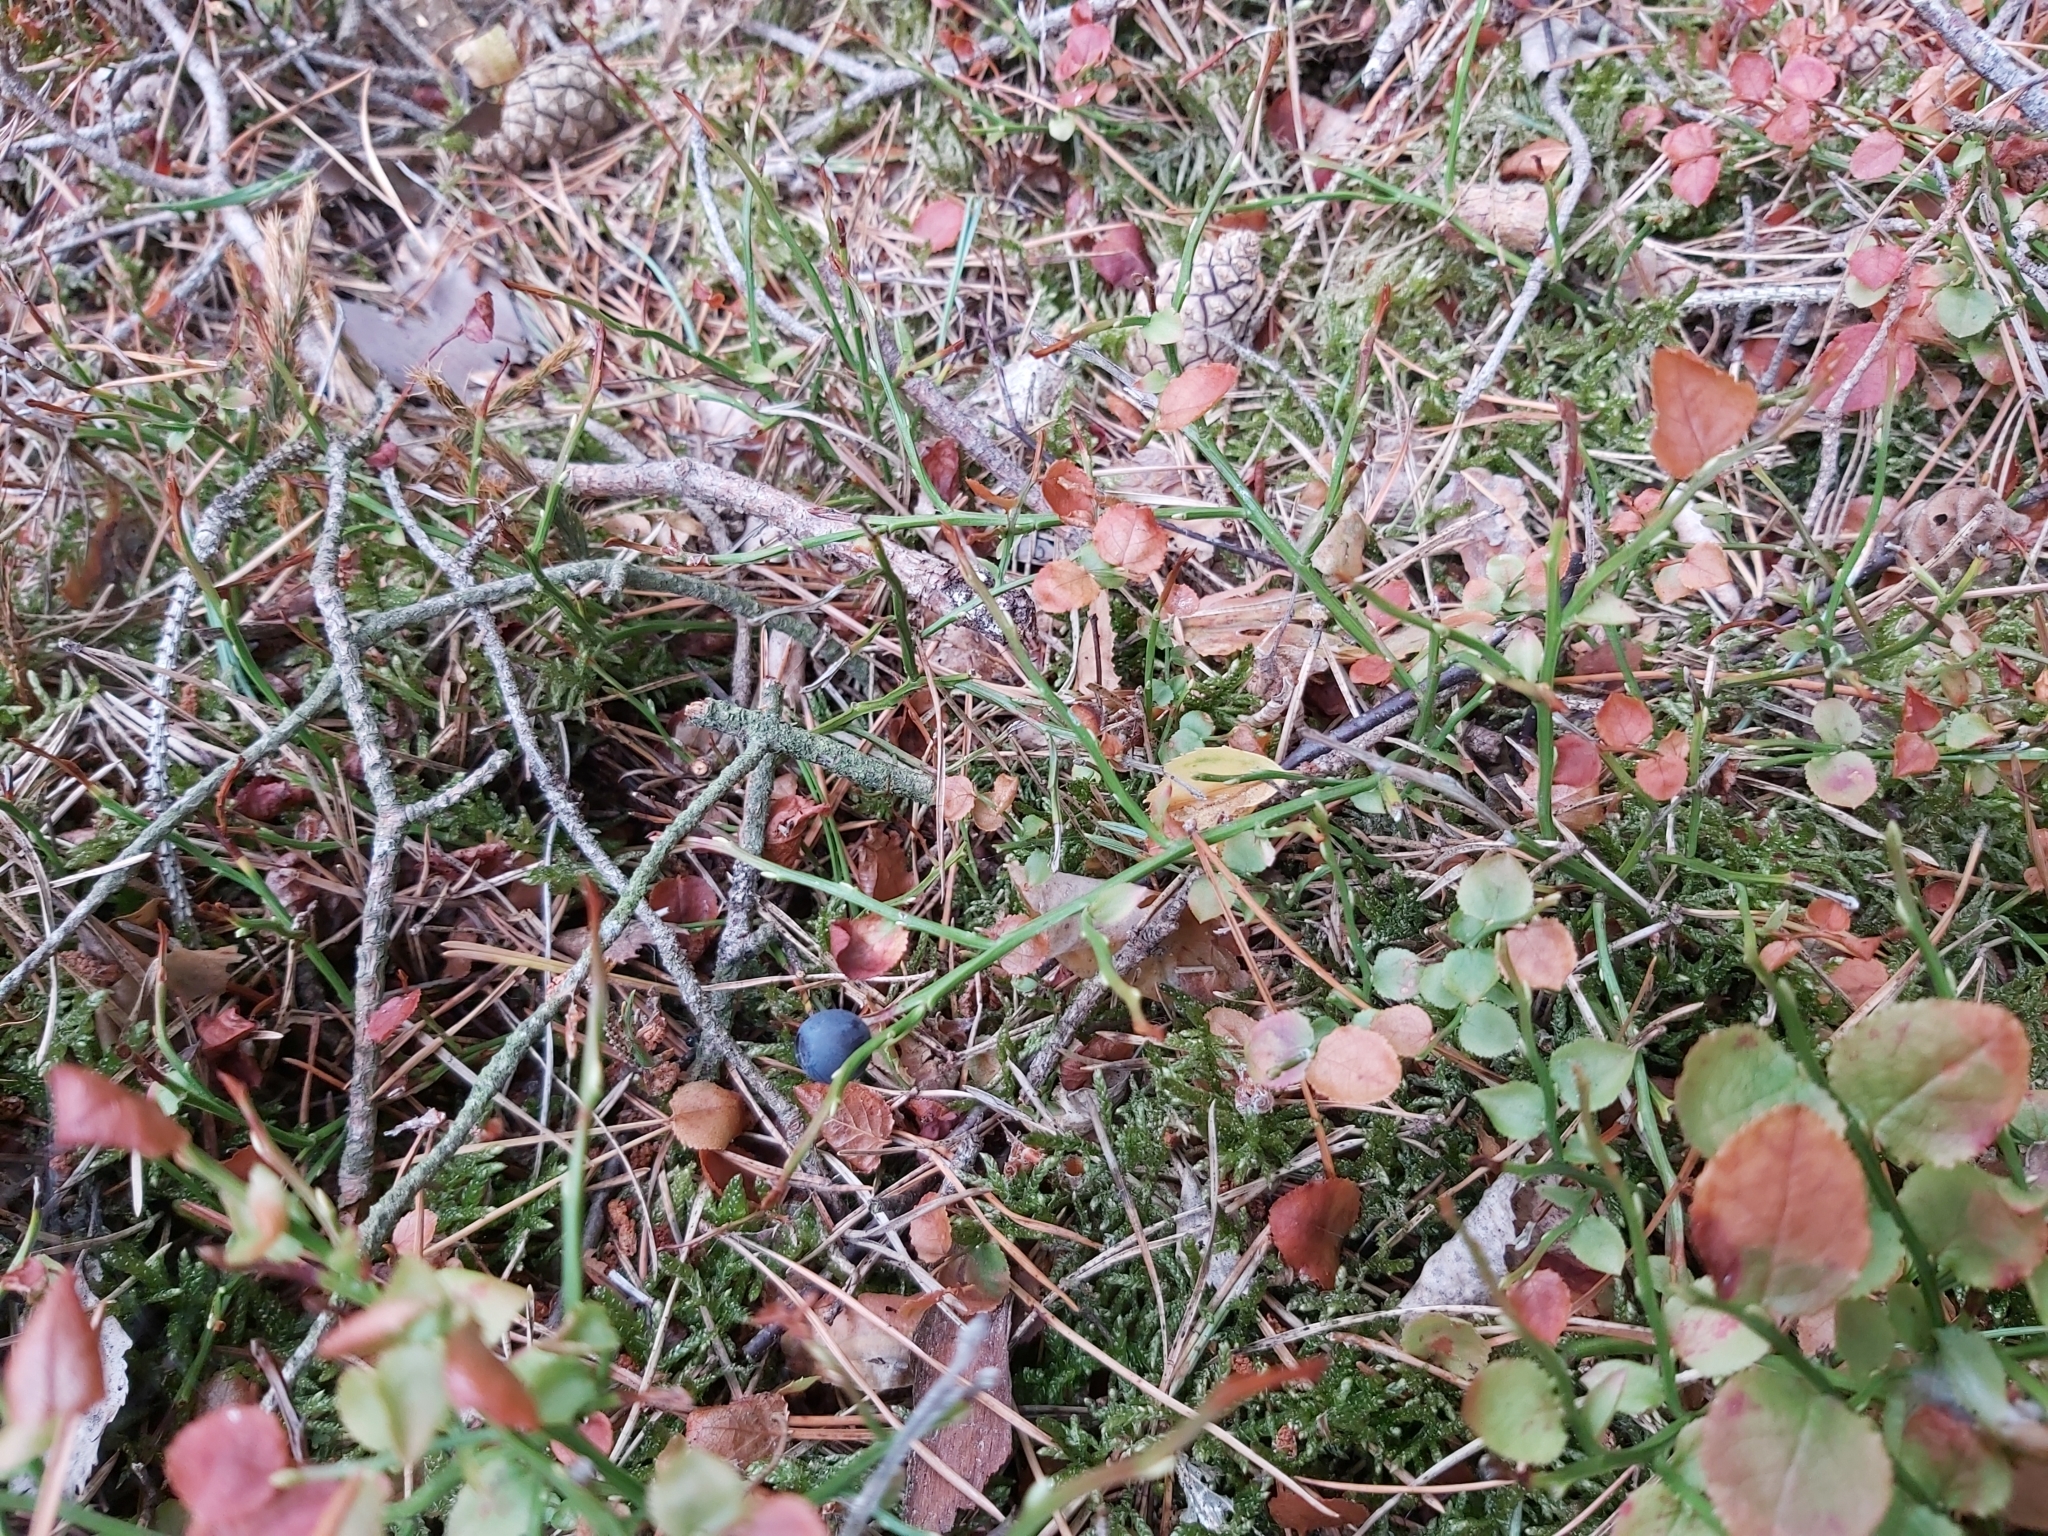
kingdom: Plantae
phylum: Tracheophyta
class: Magnoliopsida
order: Ericales
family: Ericaceae
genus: Vaccinium
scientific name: Vaccinium myrtillus
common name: Bilberry
